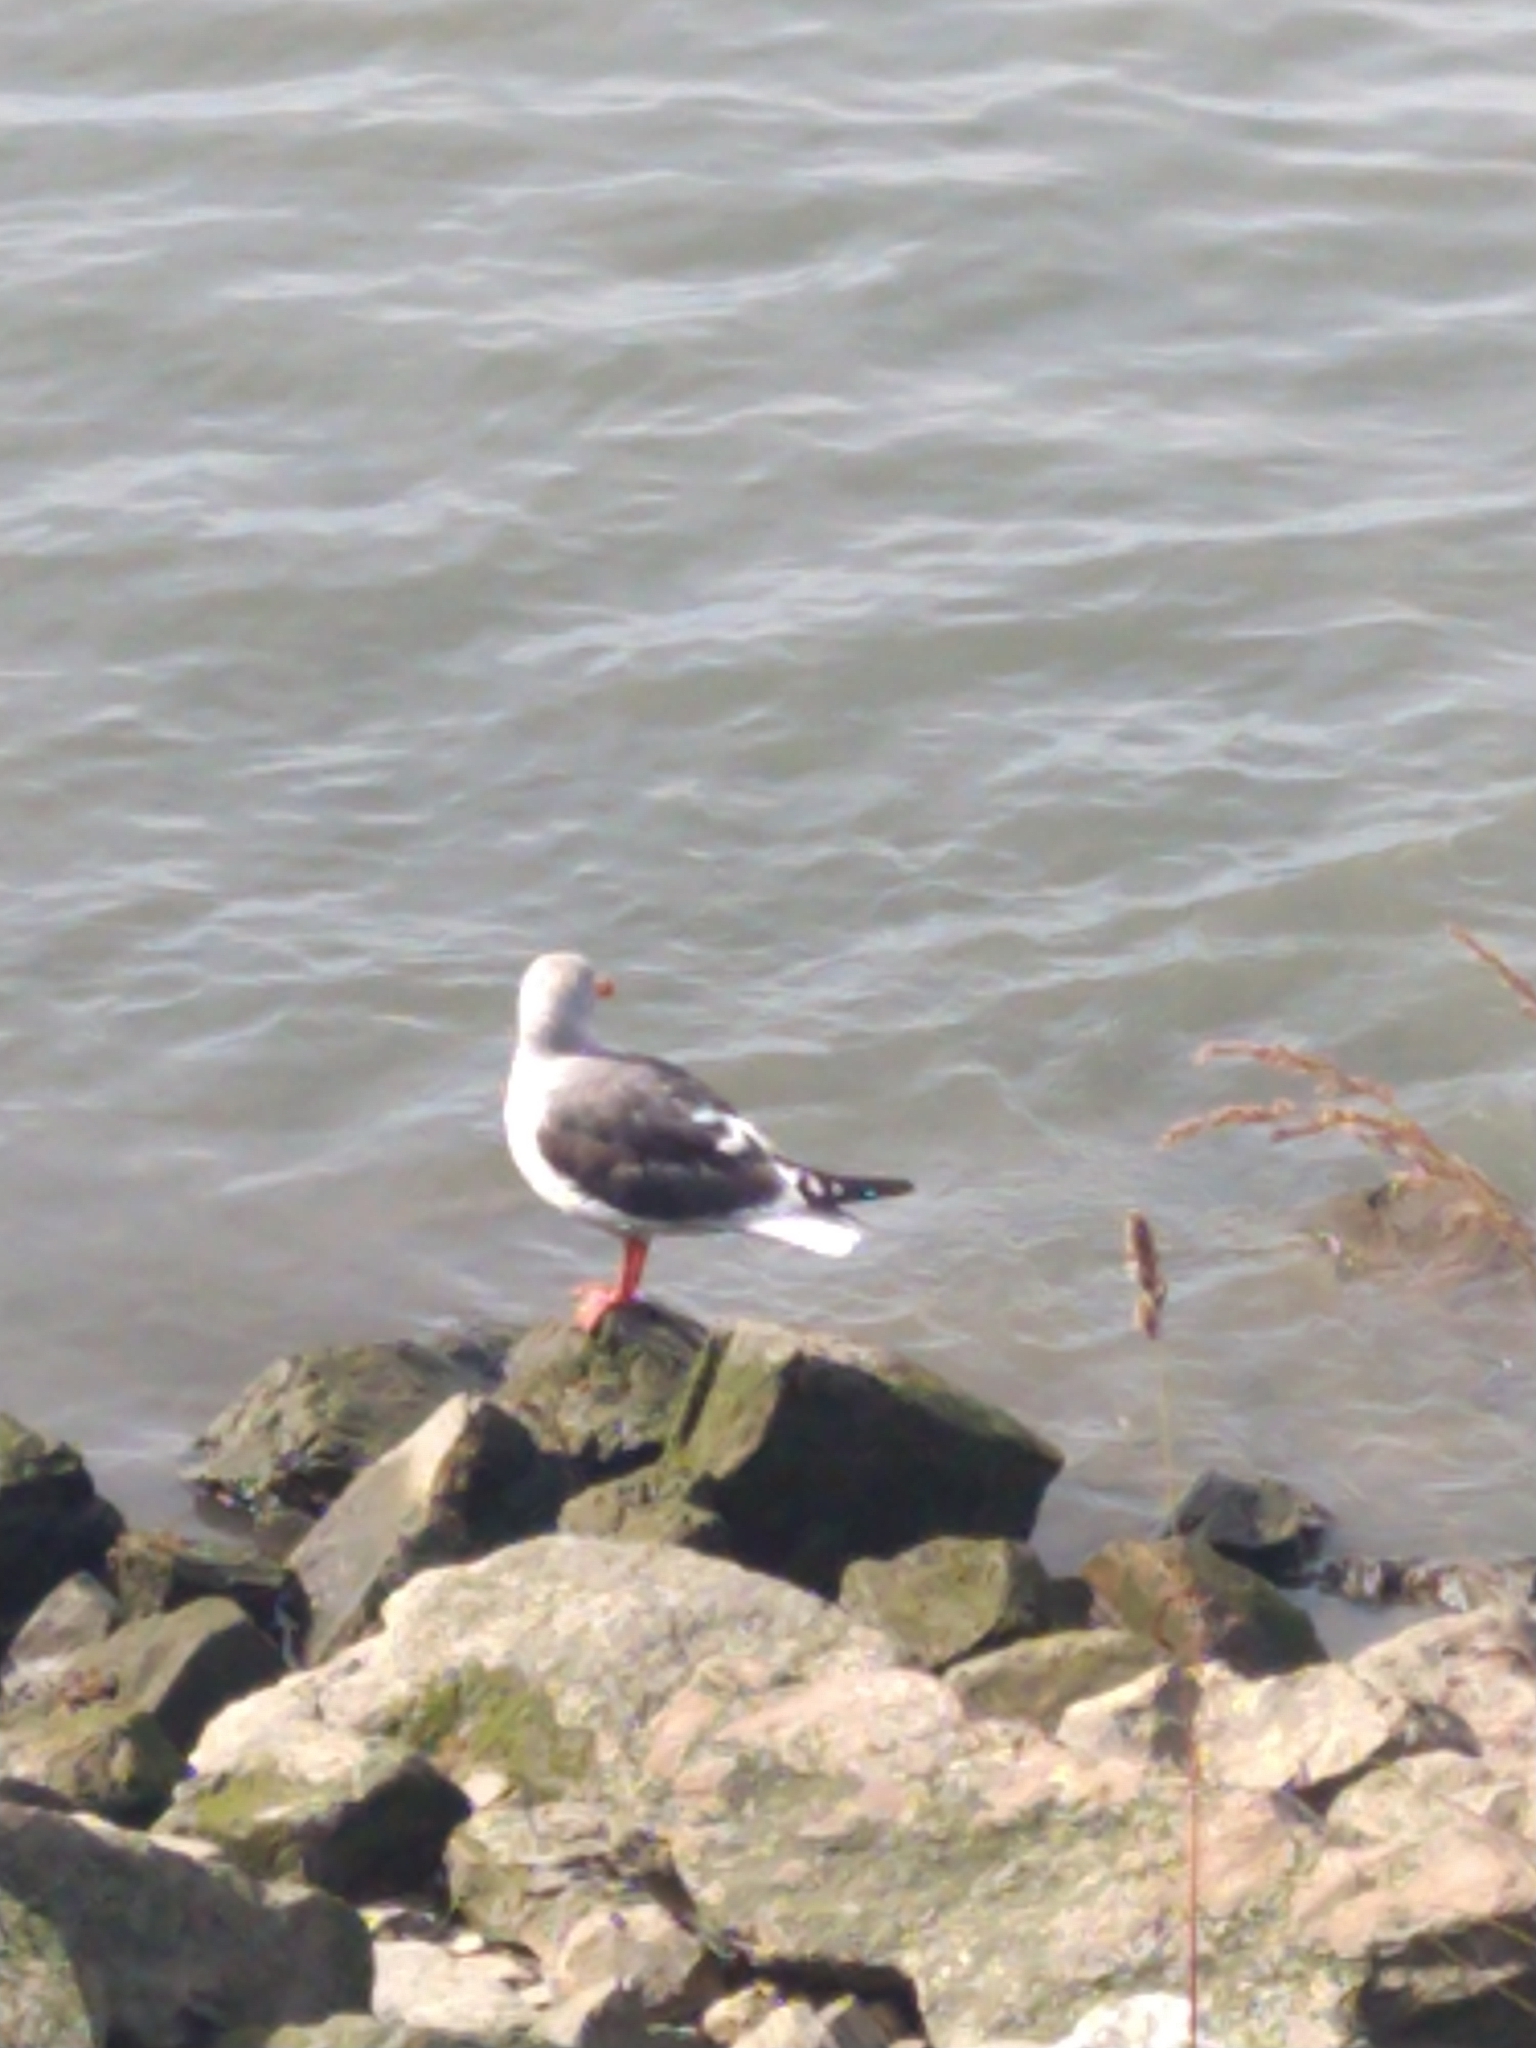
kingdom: Animalia
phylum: Chordata
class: Aves
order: Charadriiformes
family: Laridae
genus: Leucophaeus
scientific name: Leucophaeus scoresbii
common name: Dolphin gull
